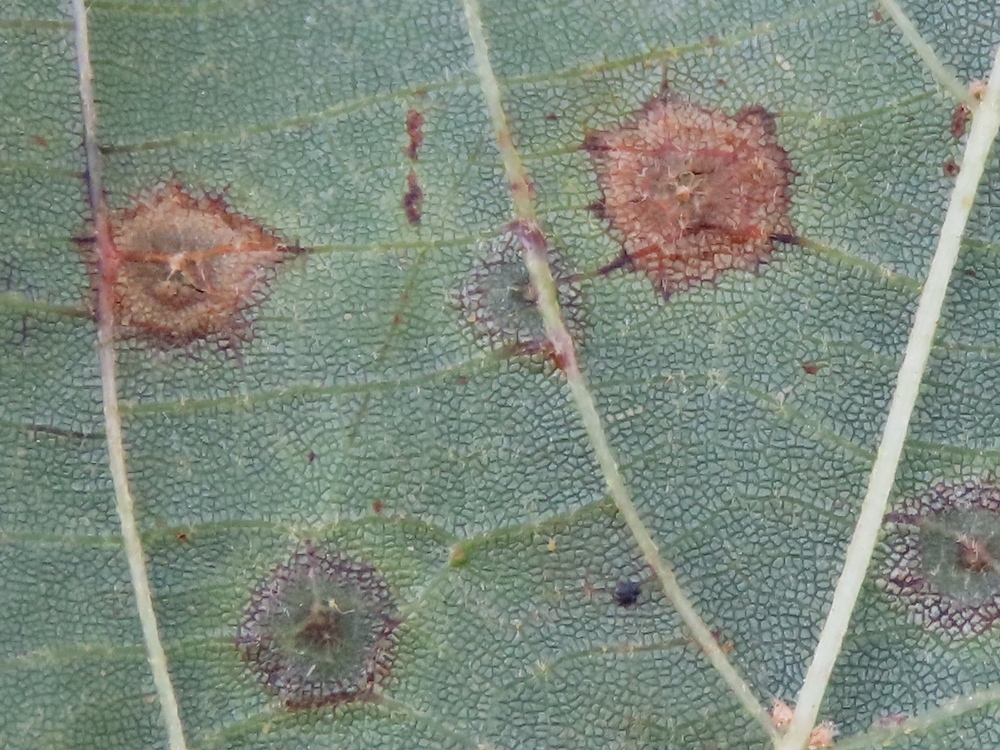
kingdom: Animalia
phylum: Arthropoda
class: Insecta
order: Diptera
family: Cecidomyiidae
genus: Gliaspilota
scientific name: Gliaspilota glutinosa
